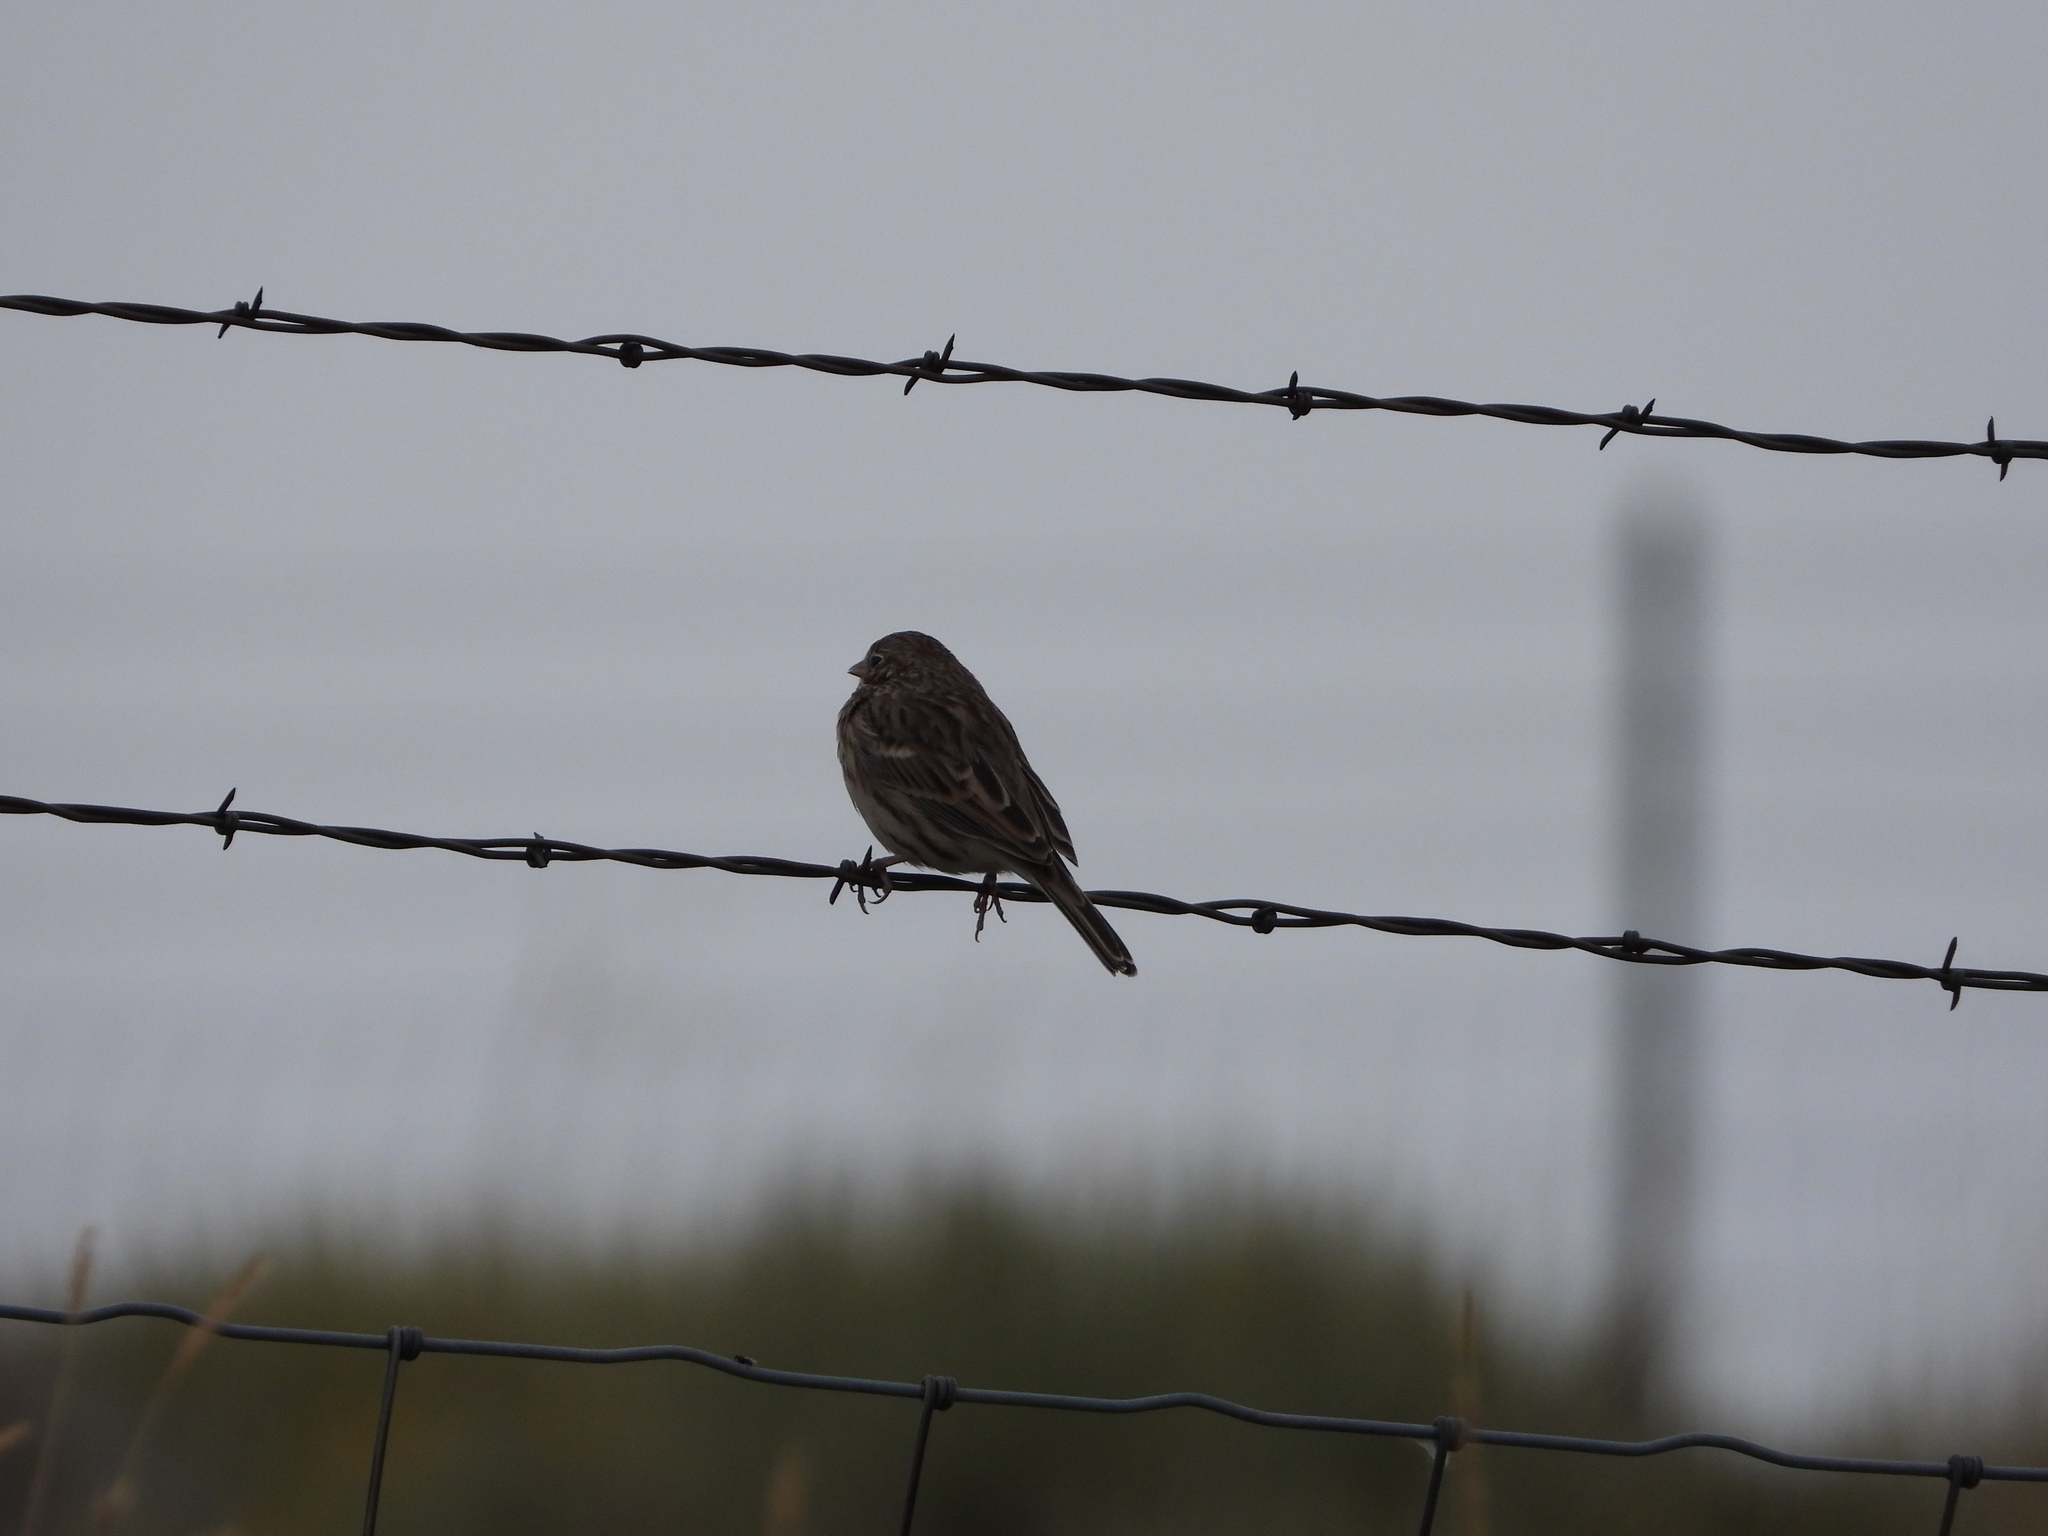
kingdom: Animalia
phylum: Chordata
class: Aves
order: Passeriformes
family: Passerellidae
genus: Pooecetes
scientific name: Pooecetes gramineus
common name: Vesper sparrow
